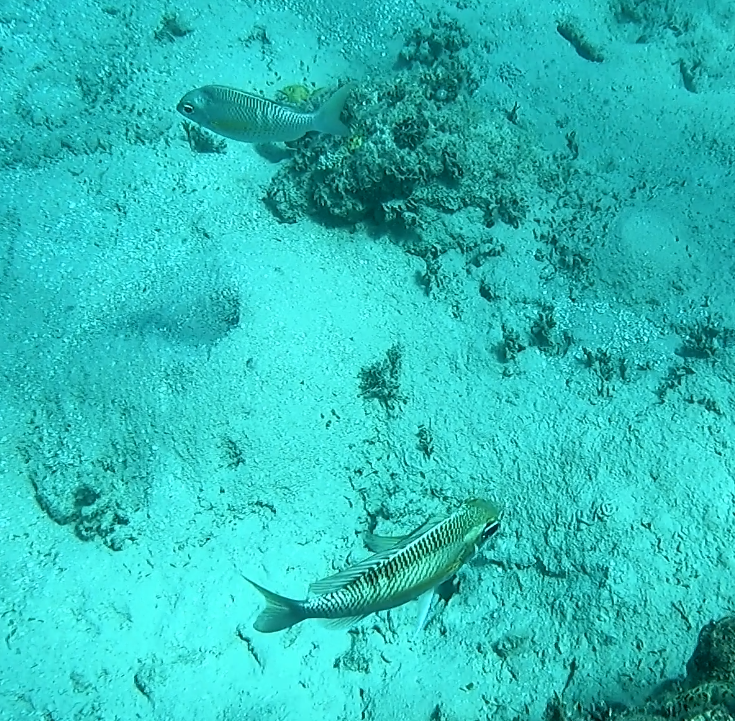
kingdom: Animalia
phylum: Chordata
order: Perciformes
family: Nemipteridae
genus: Scolopsis
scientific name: Scolopsis margaritifera
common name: Pearly monocle bream
